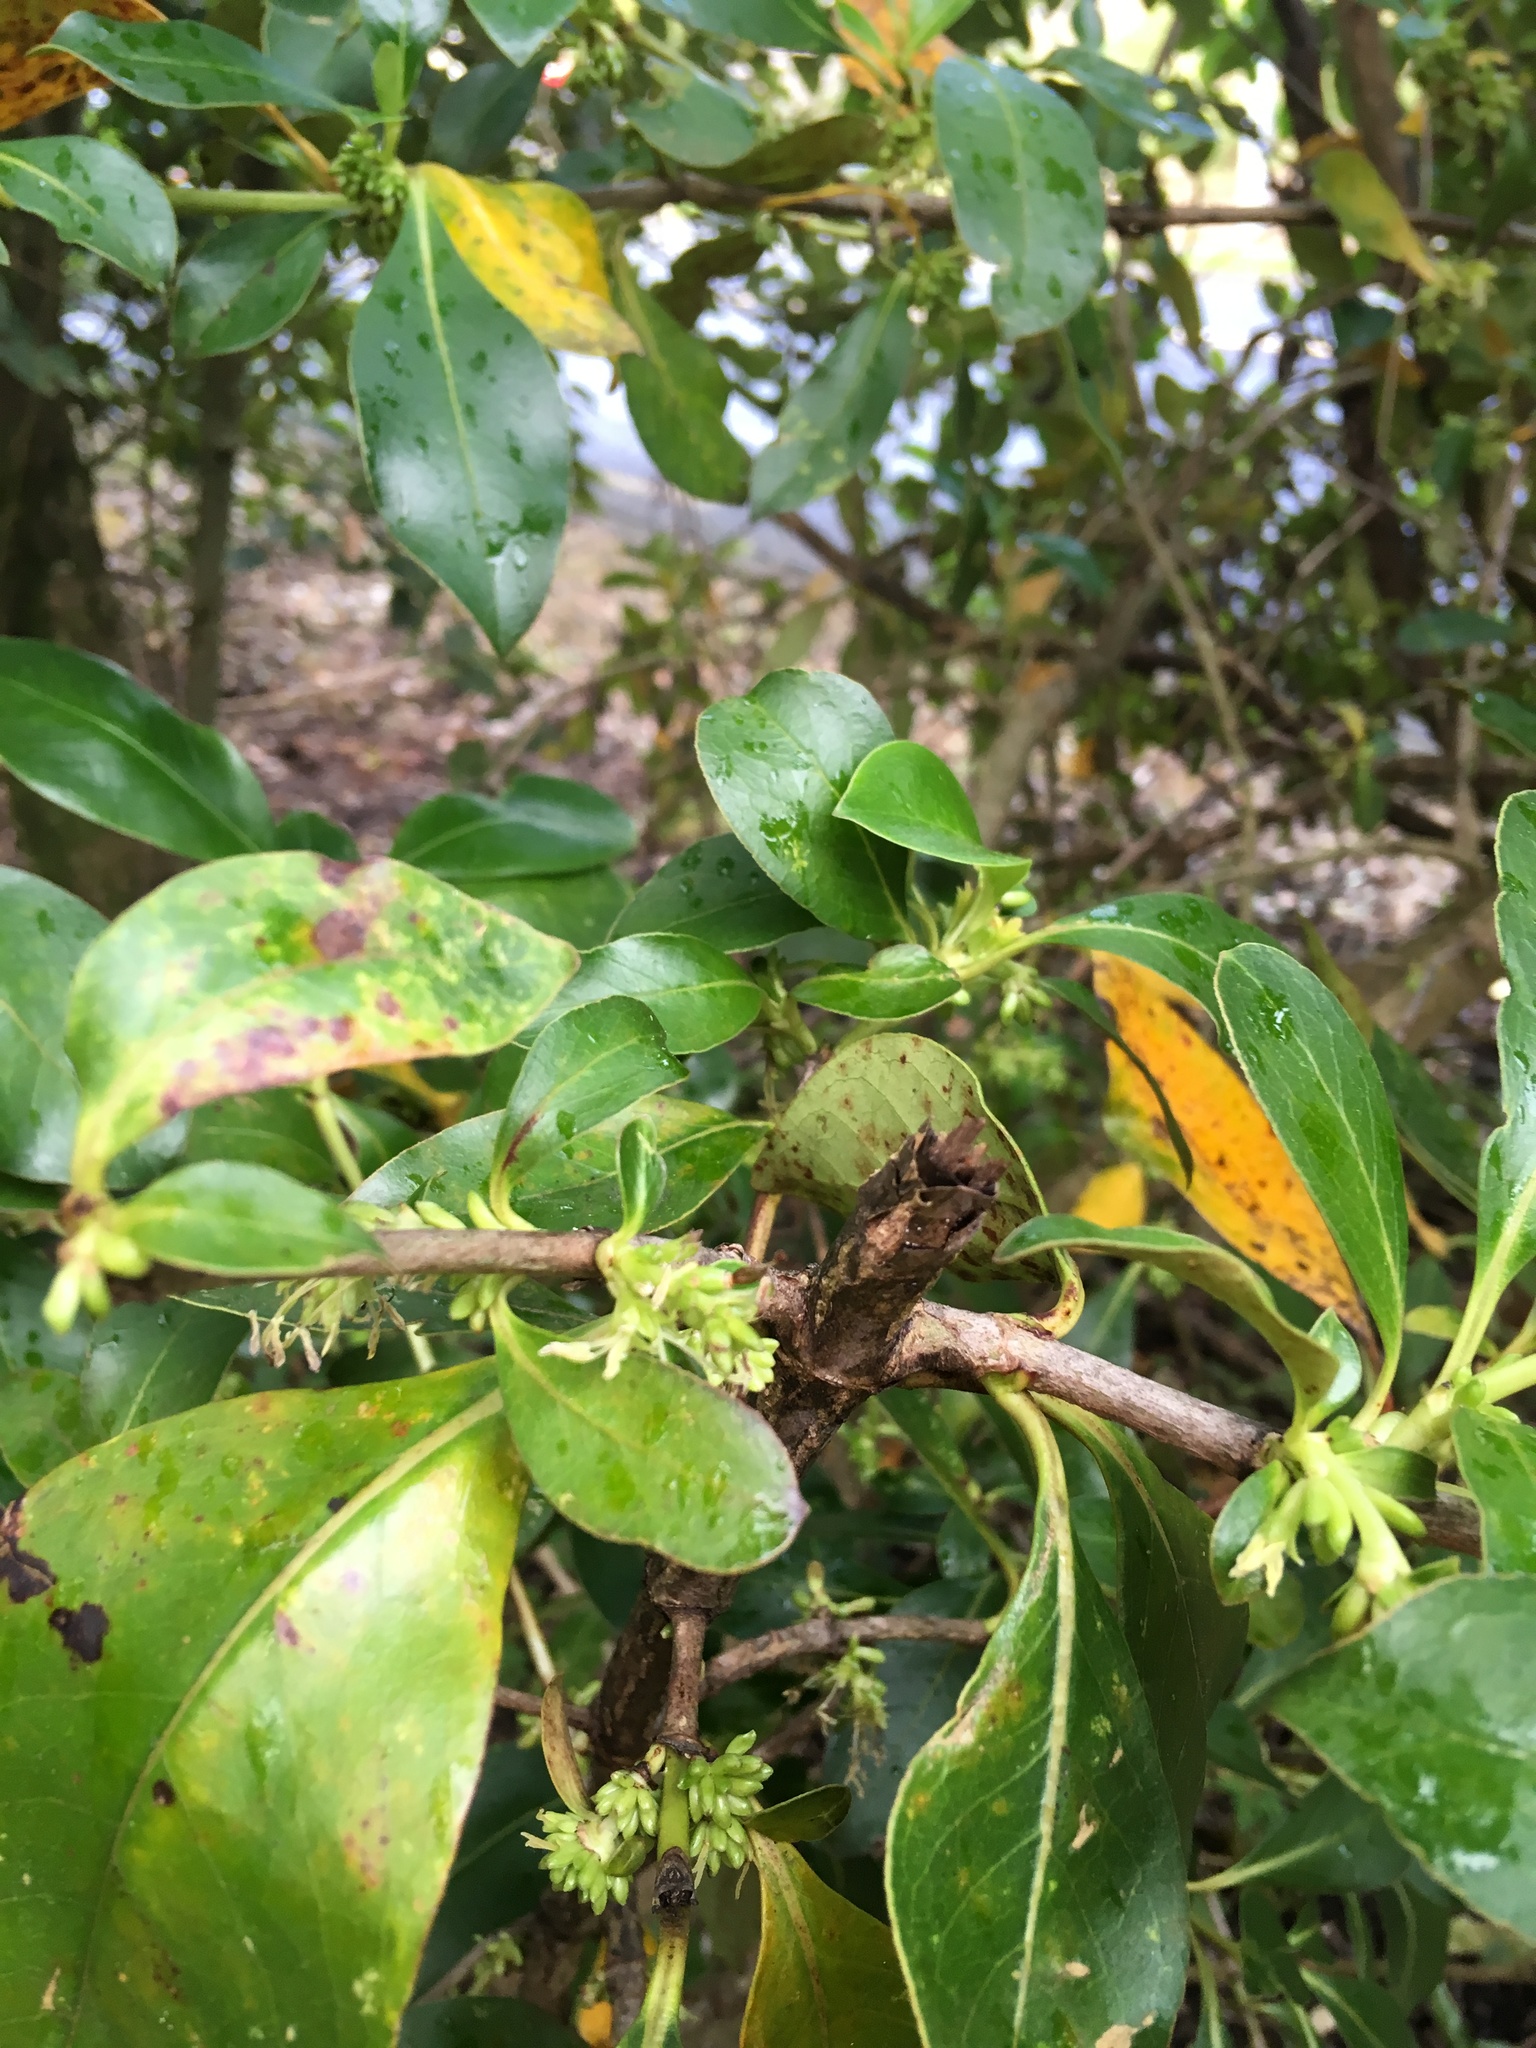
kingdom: Plantae
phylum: Tracheophyta
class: Magnoliopsida
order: Gentianales
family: Rubiaceae
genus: Coprosma
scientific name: Coprosma robusta
